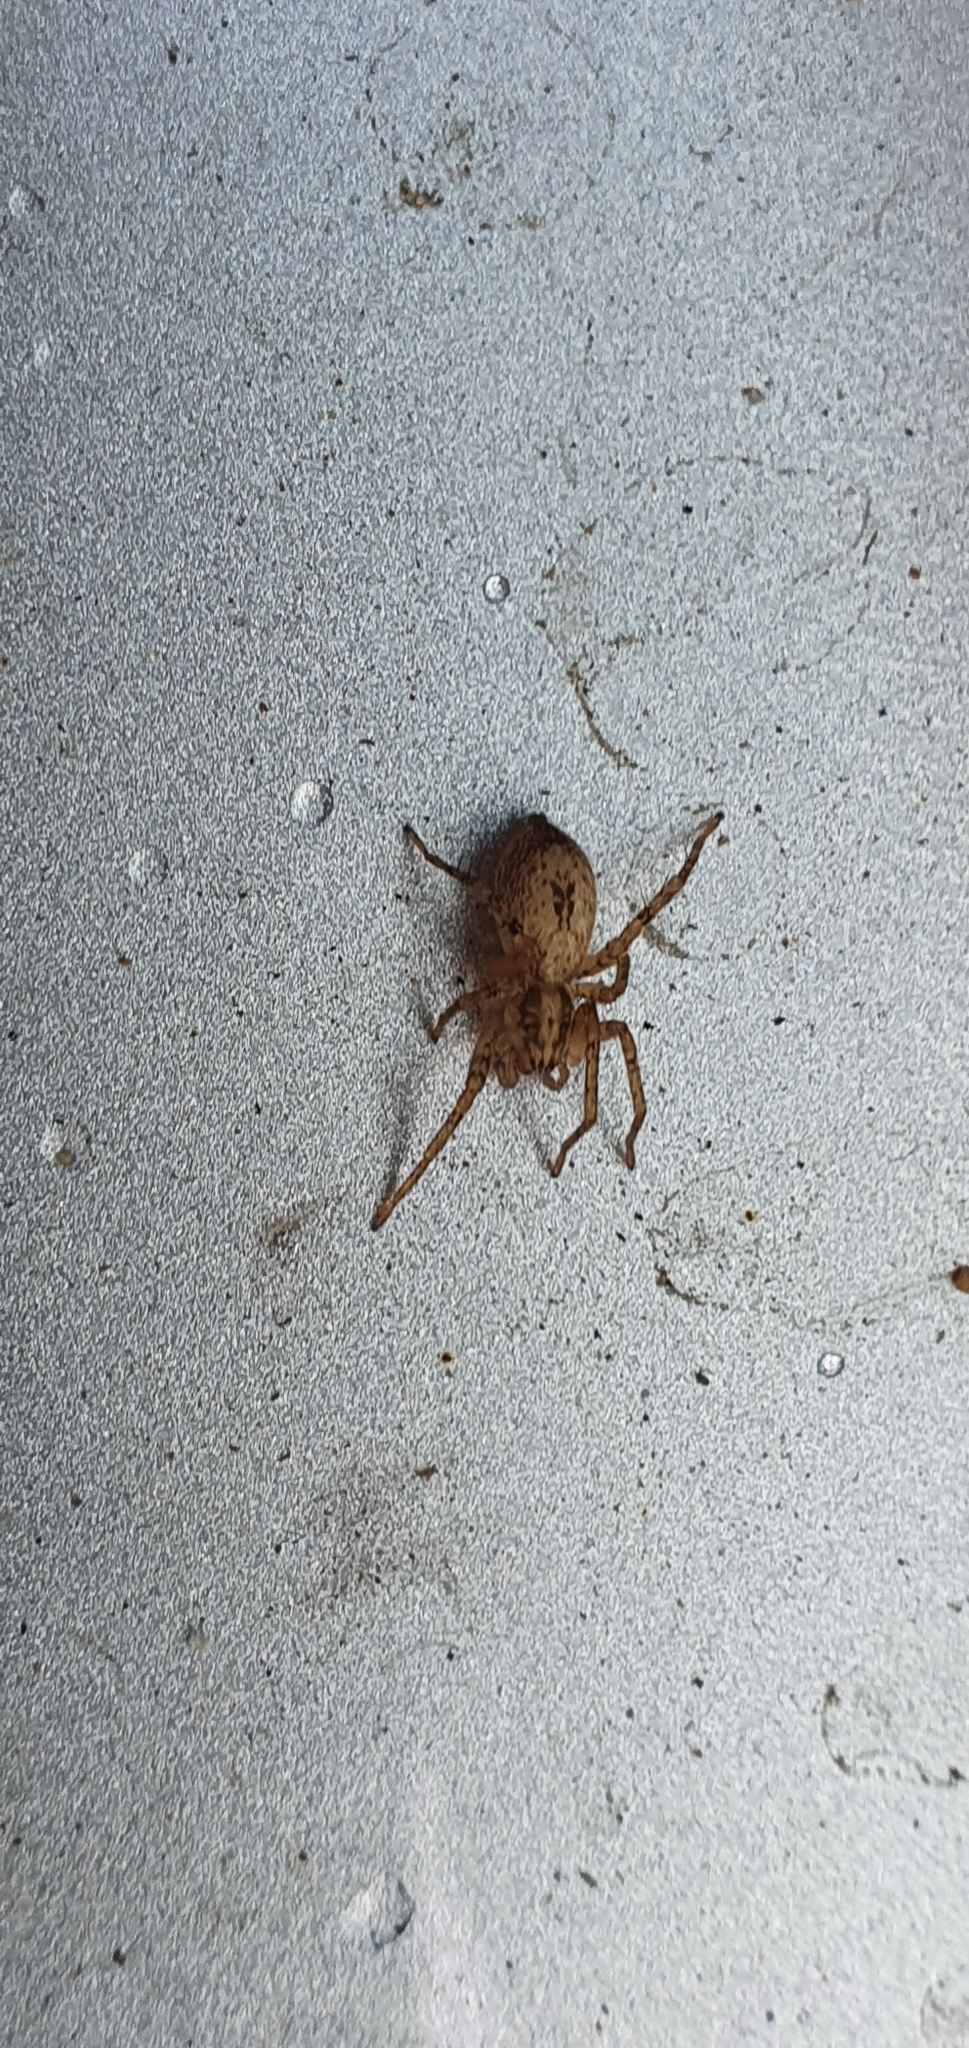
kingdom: Animalia
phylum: Arthropoda
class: Arachnida
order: Araneae
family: Anyphaenidae
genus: Anyphaena
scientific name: Anyphaena accentuata
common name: Buzzing spider
